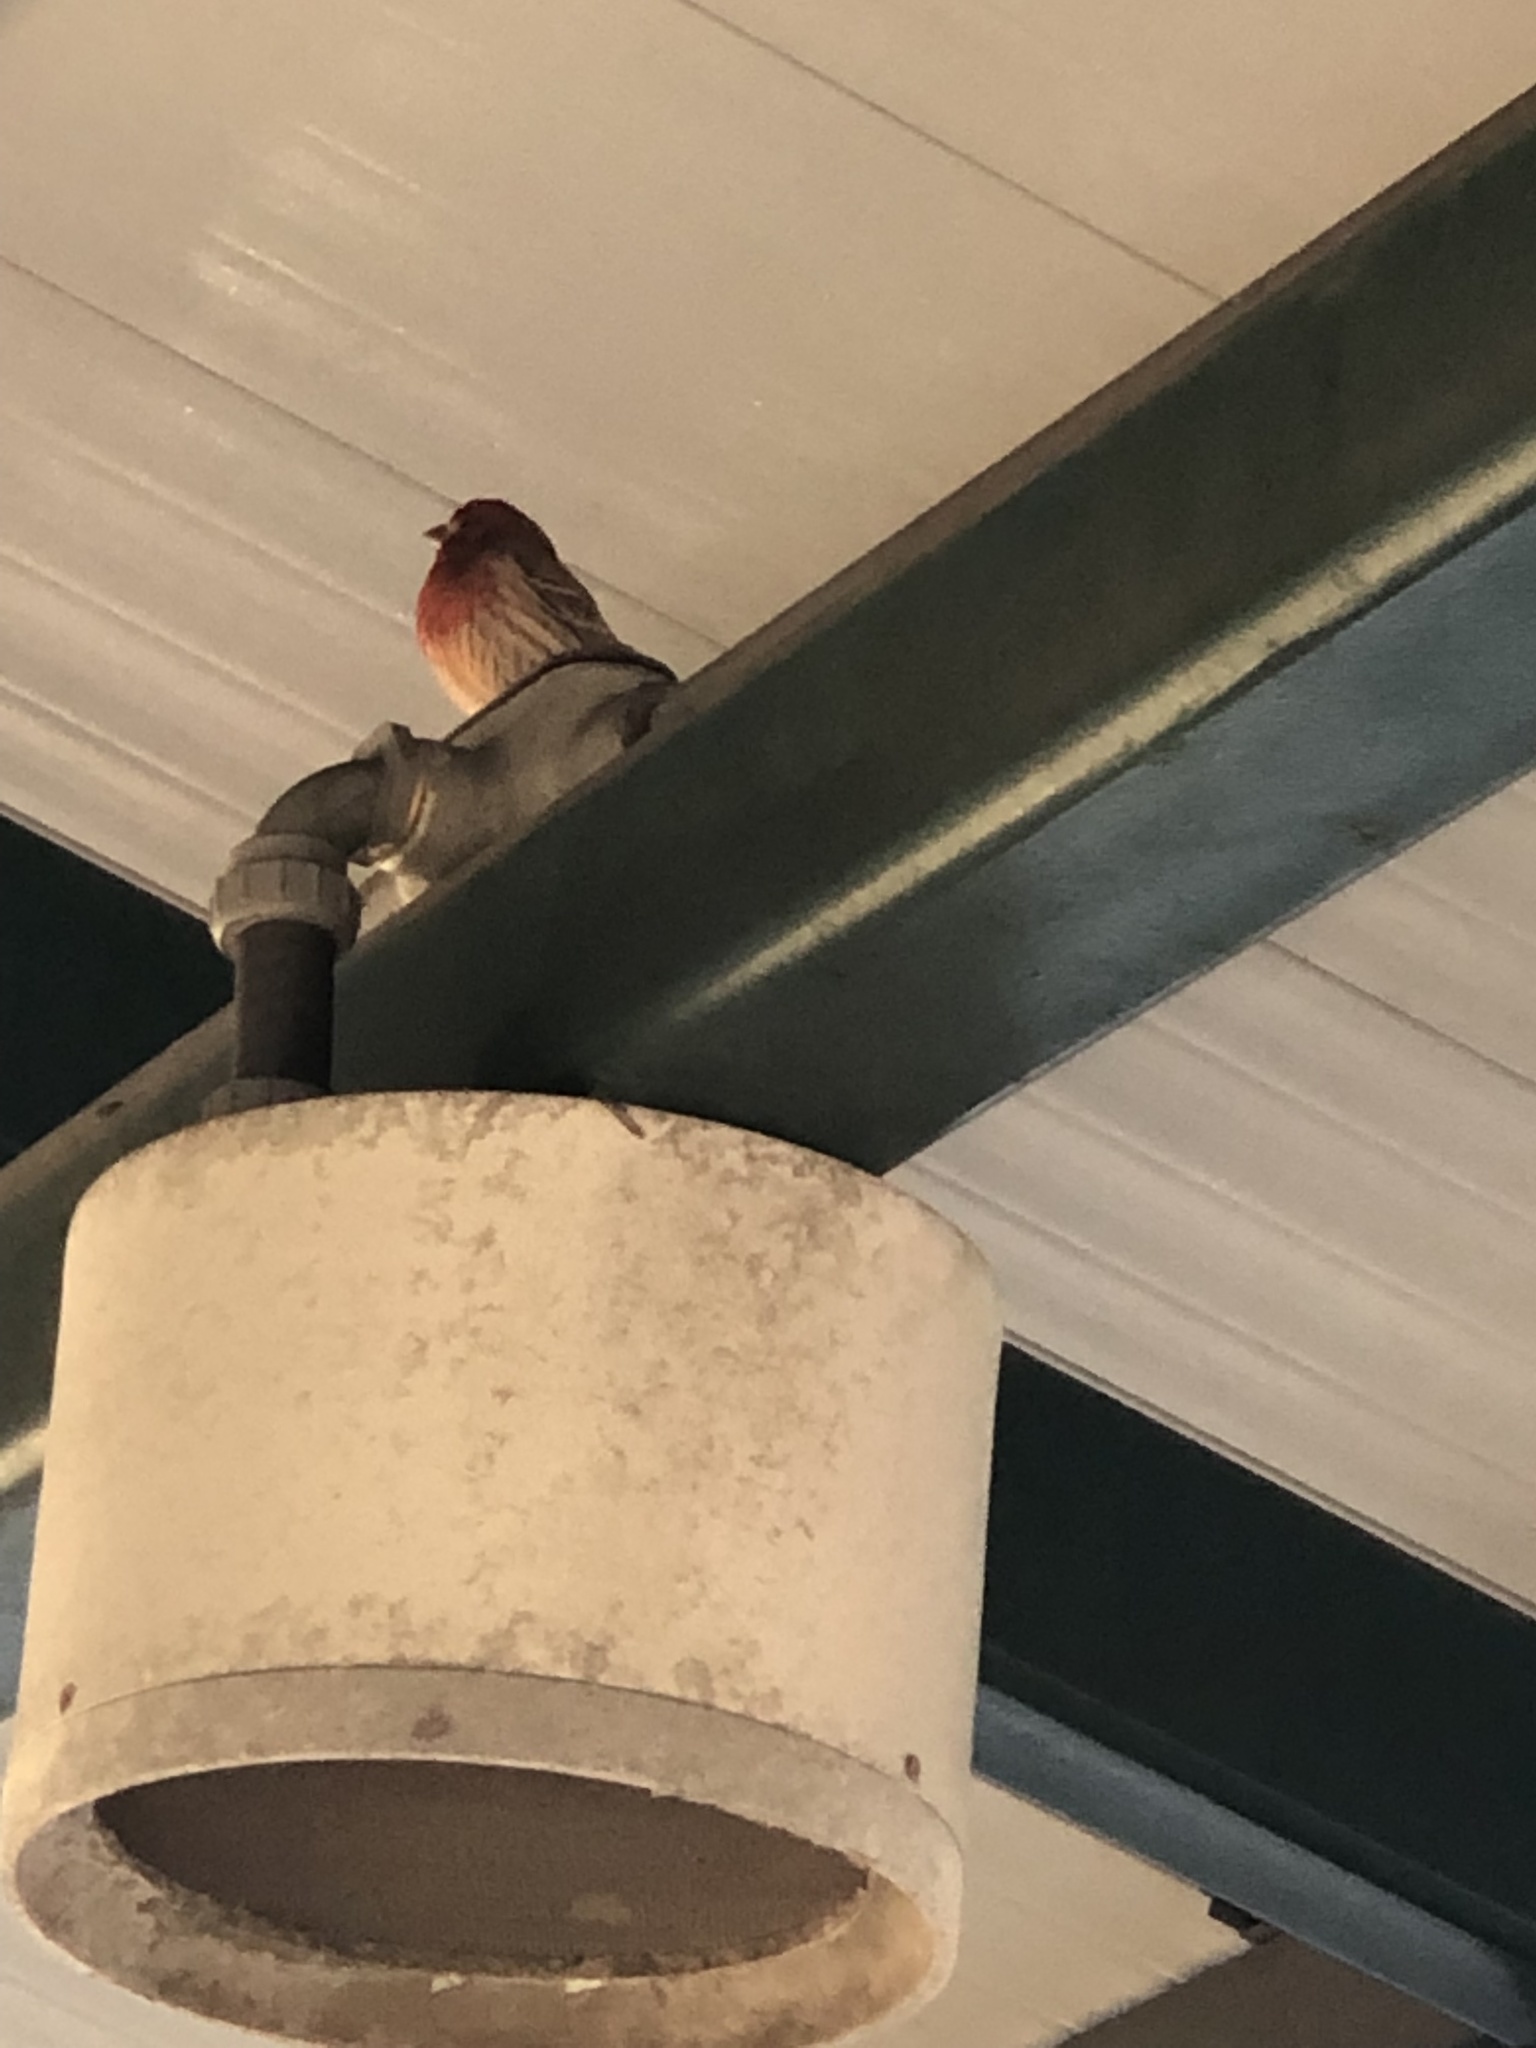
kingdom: Animalia
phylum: Chordata
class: Aves
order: Passeriformes
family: Fringillidae
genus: Haemorhous
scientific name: Haemorhous mexicanus
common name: House finch
